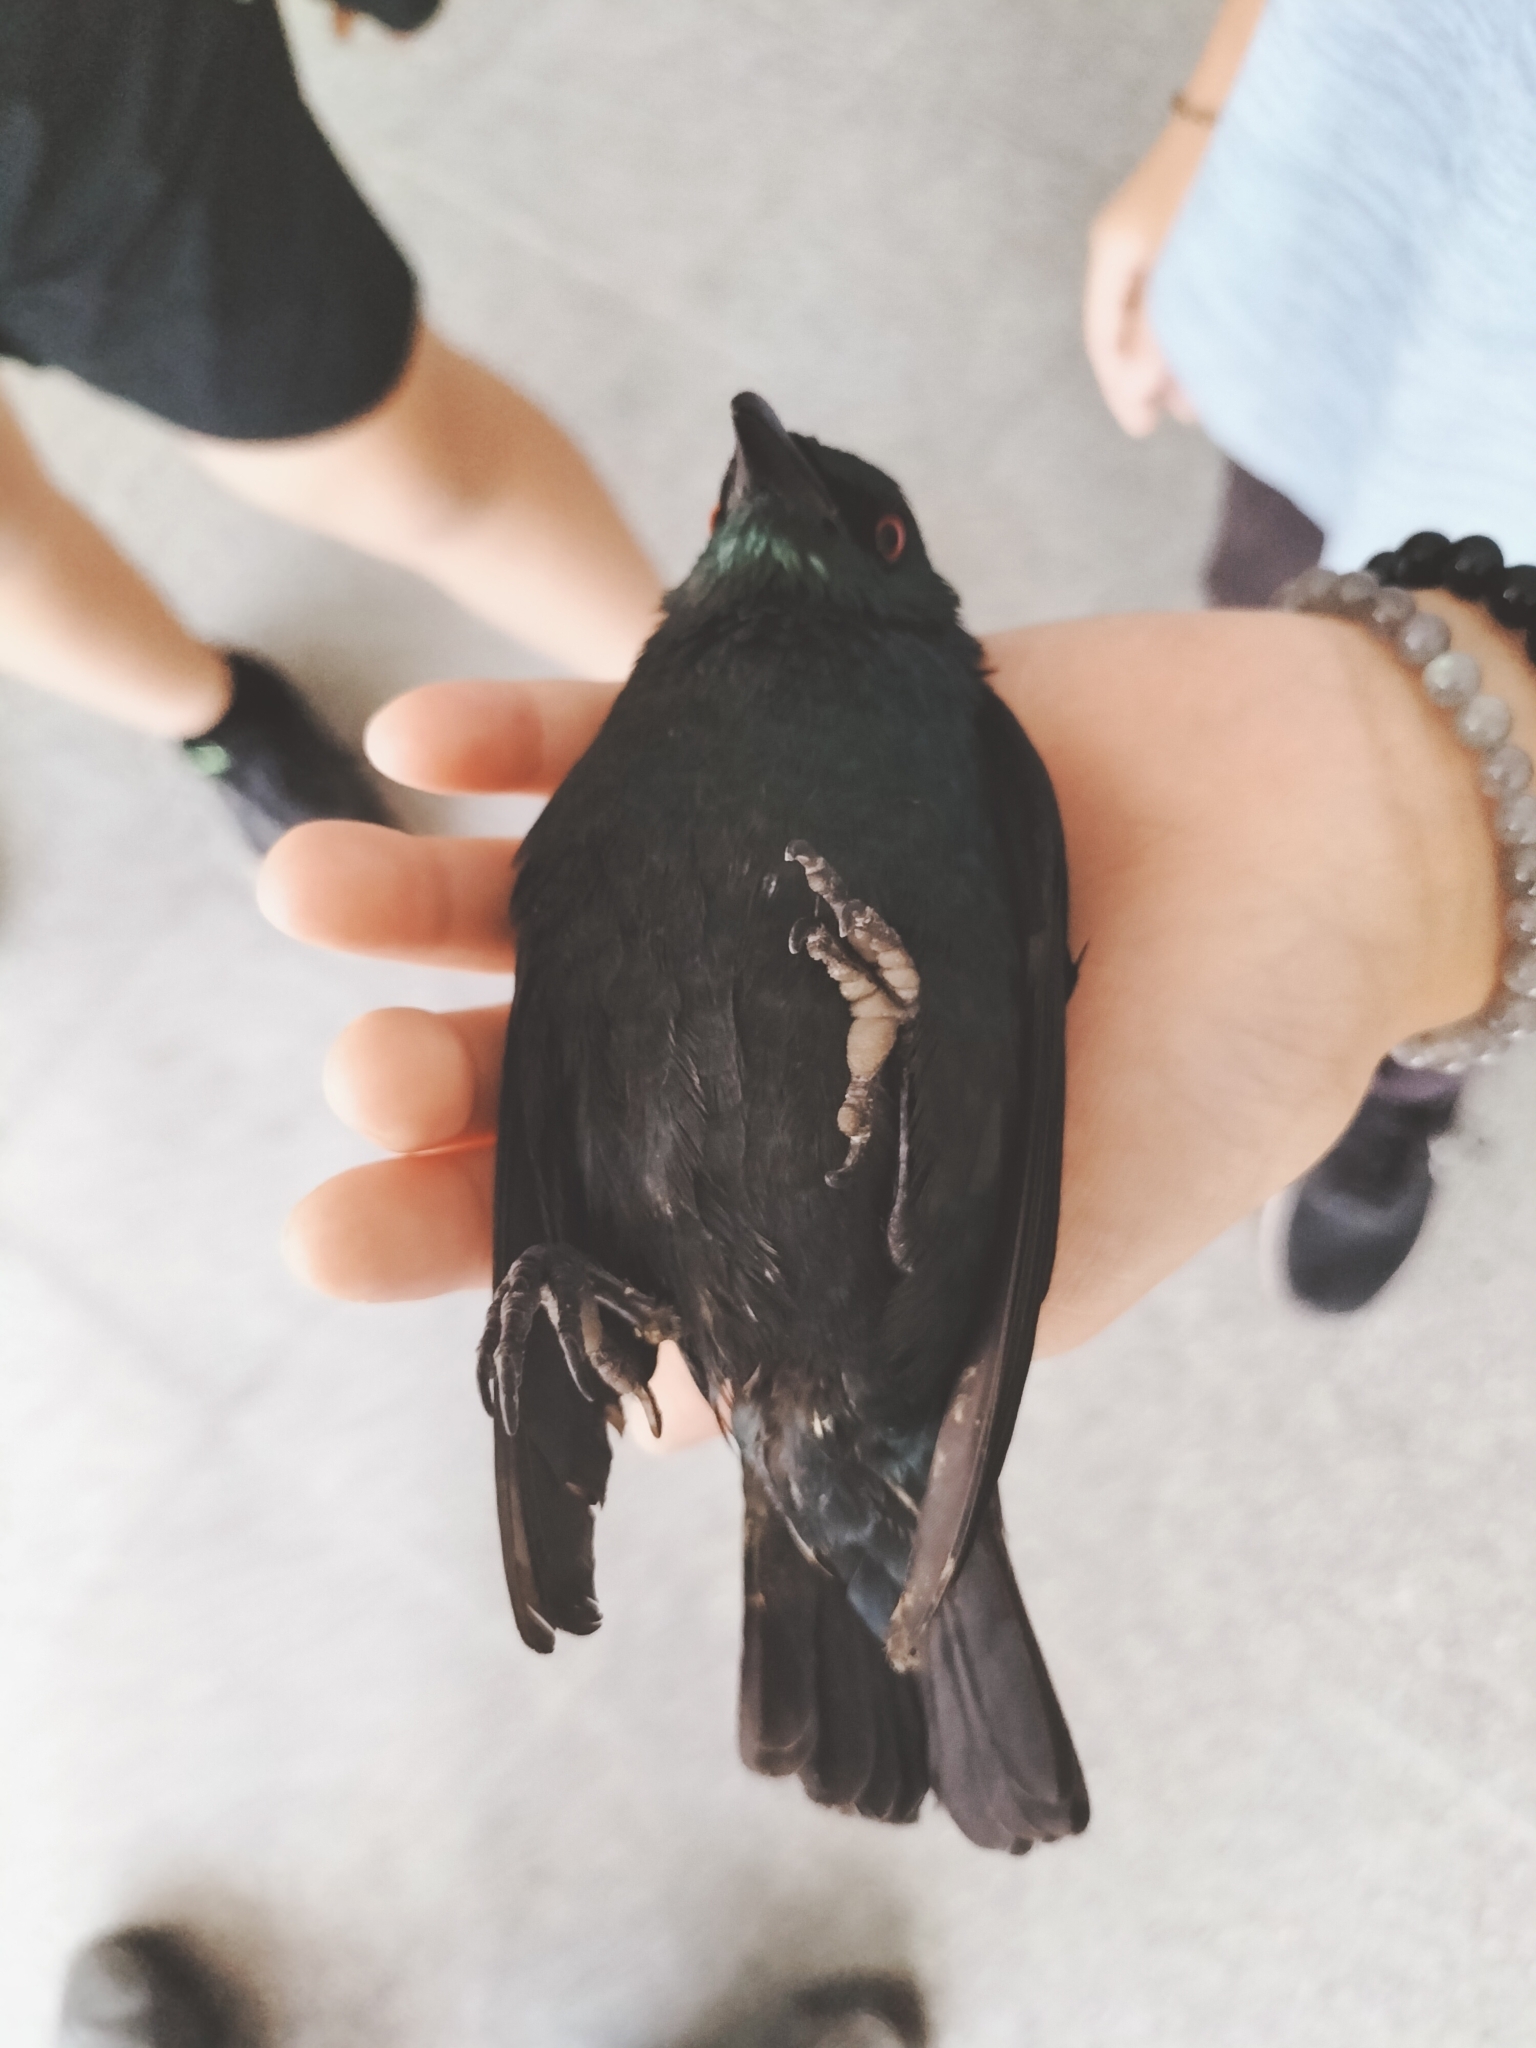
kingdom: Animalia
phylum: Chordata
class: Aves
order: Passeriformes
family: Sturnidae
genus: Aplonis
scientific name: Aplonis panayensis
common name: Asian glossy starling
